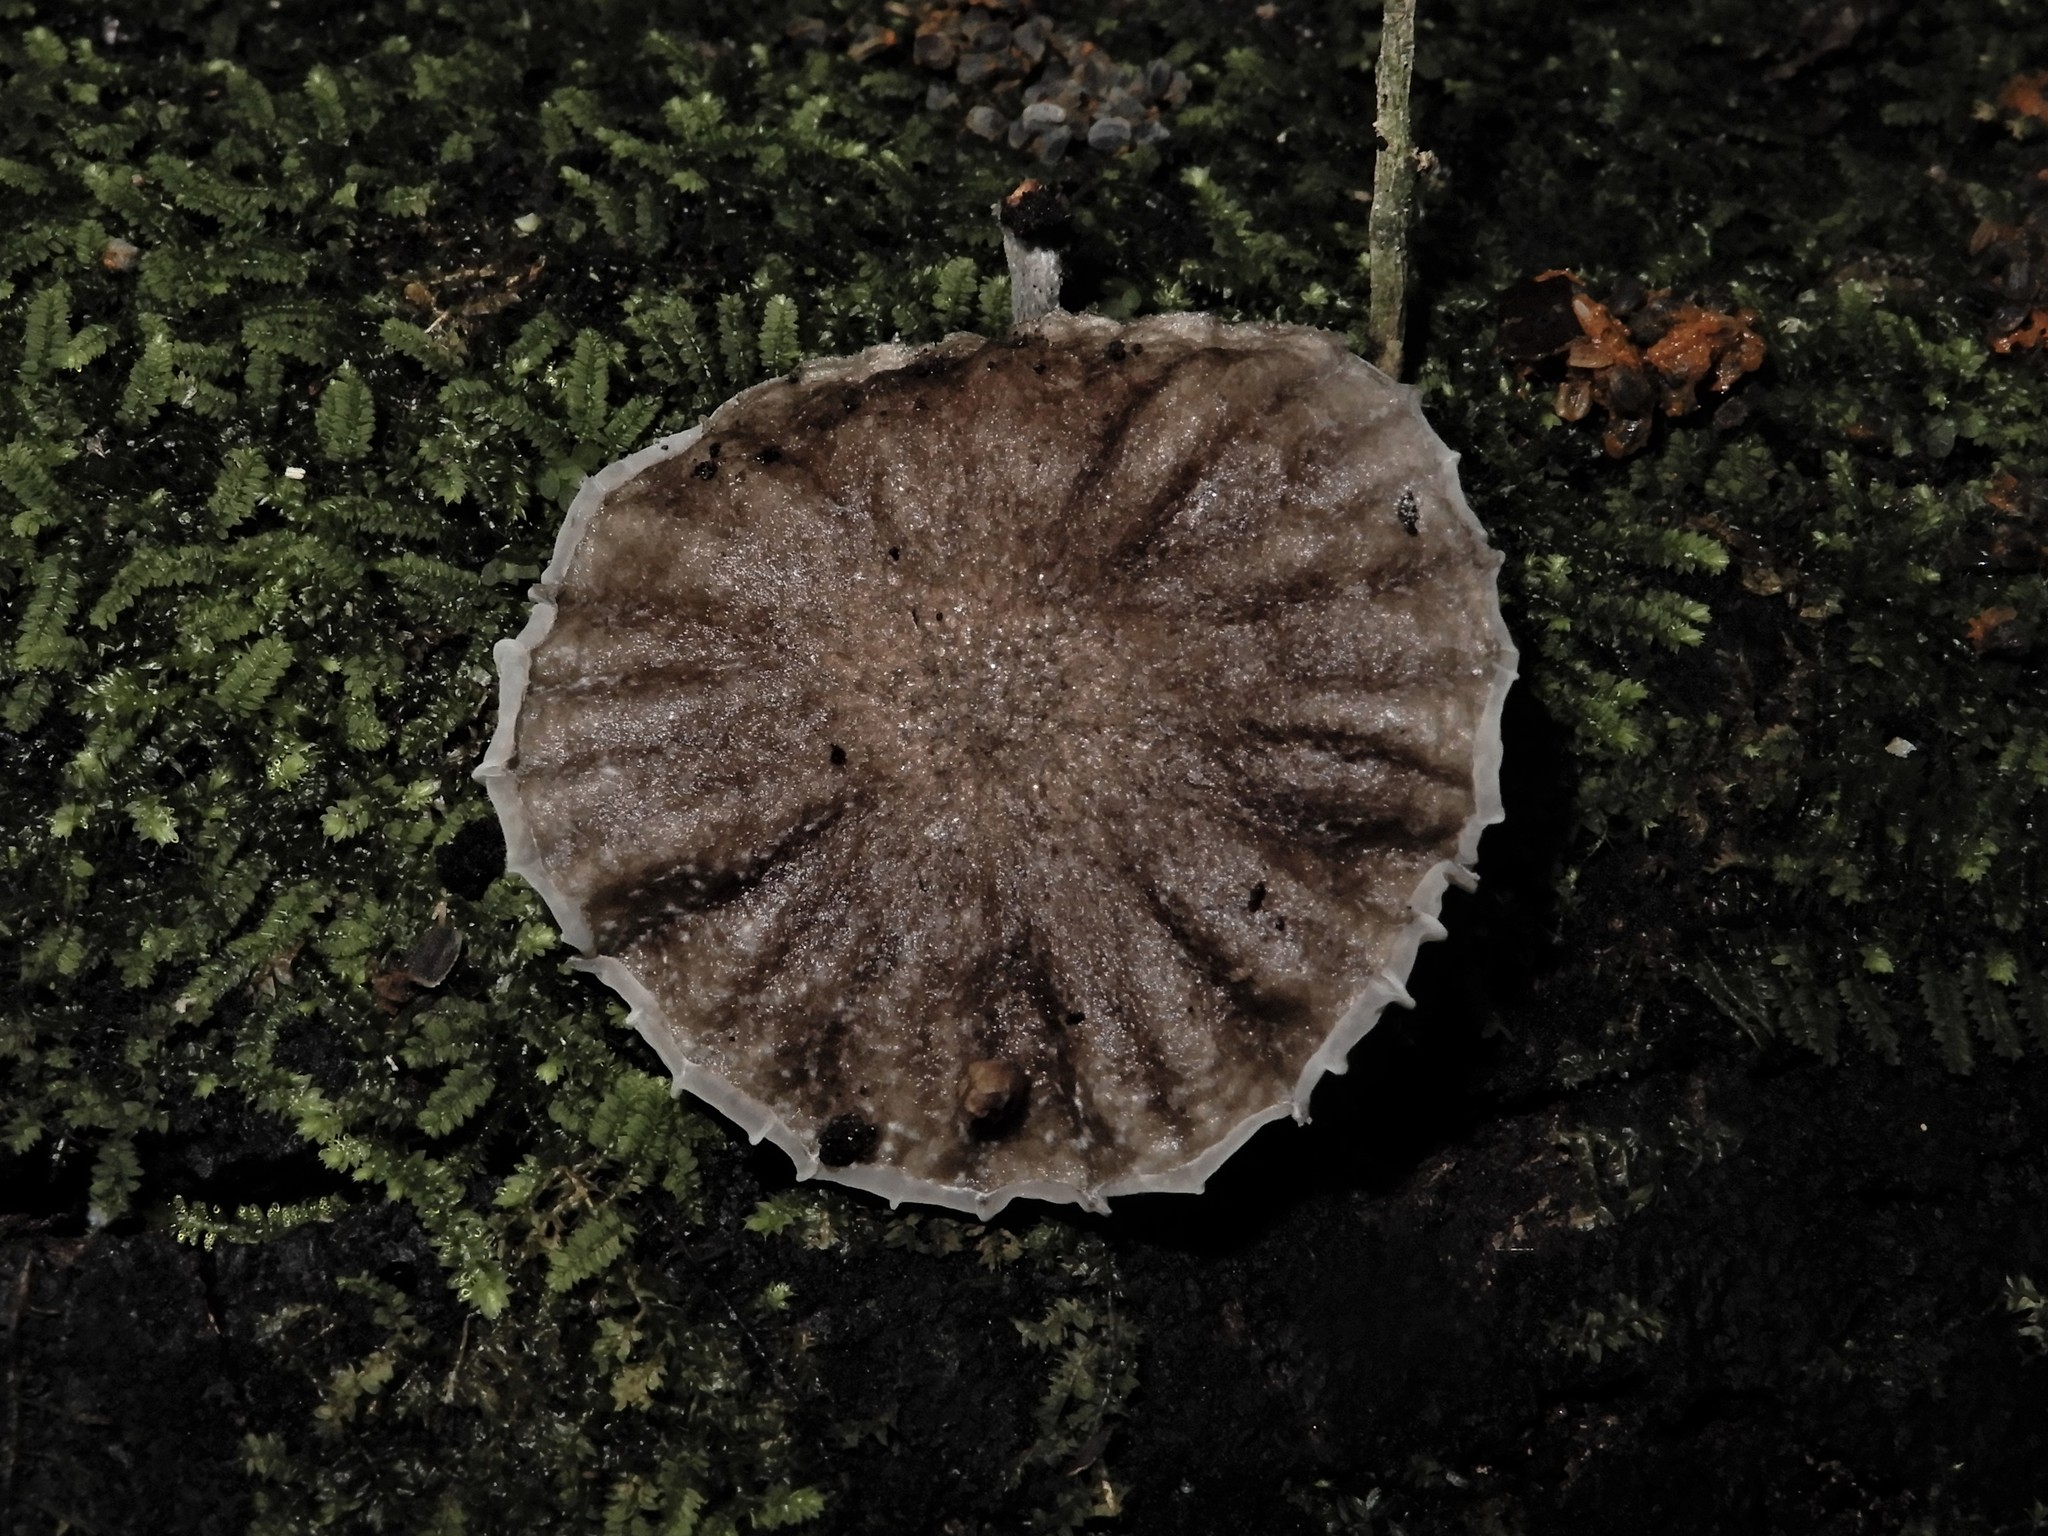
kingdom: Fungi
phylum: Basidiomycota
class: Agaricomycetes
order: Agaricales
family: Marasmiaceae
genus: Campanella
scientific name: Campanella
